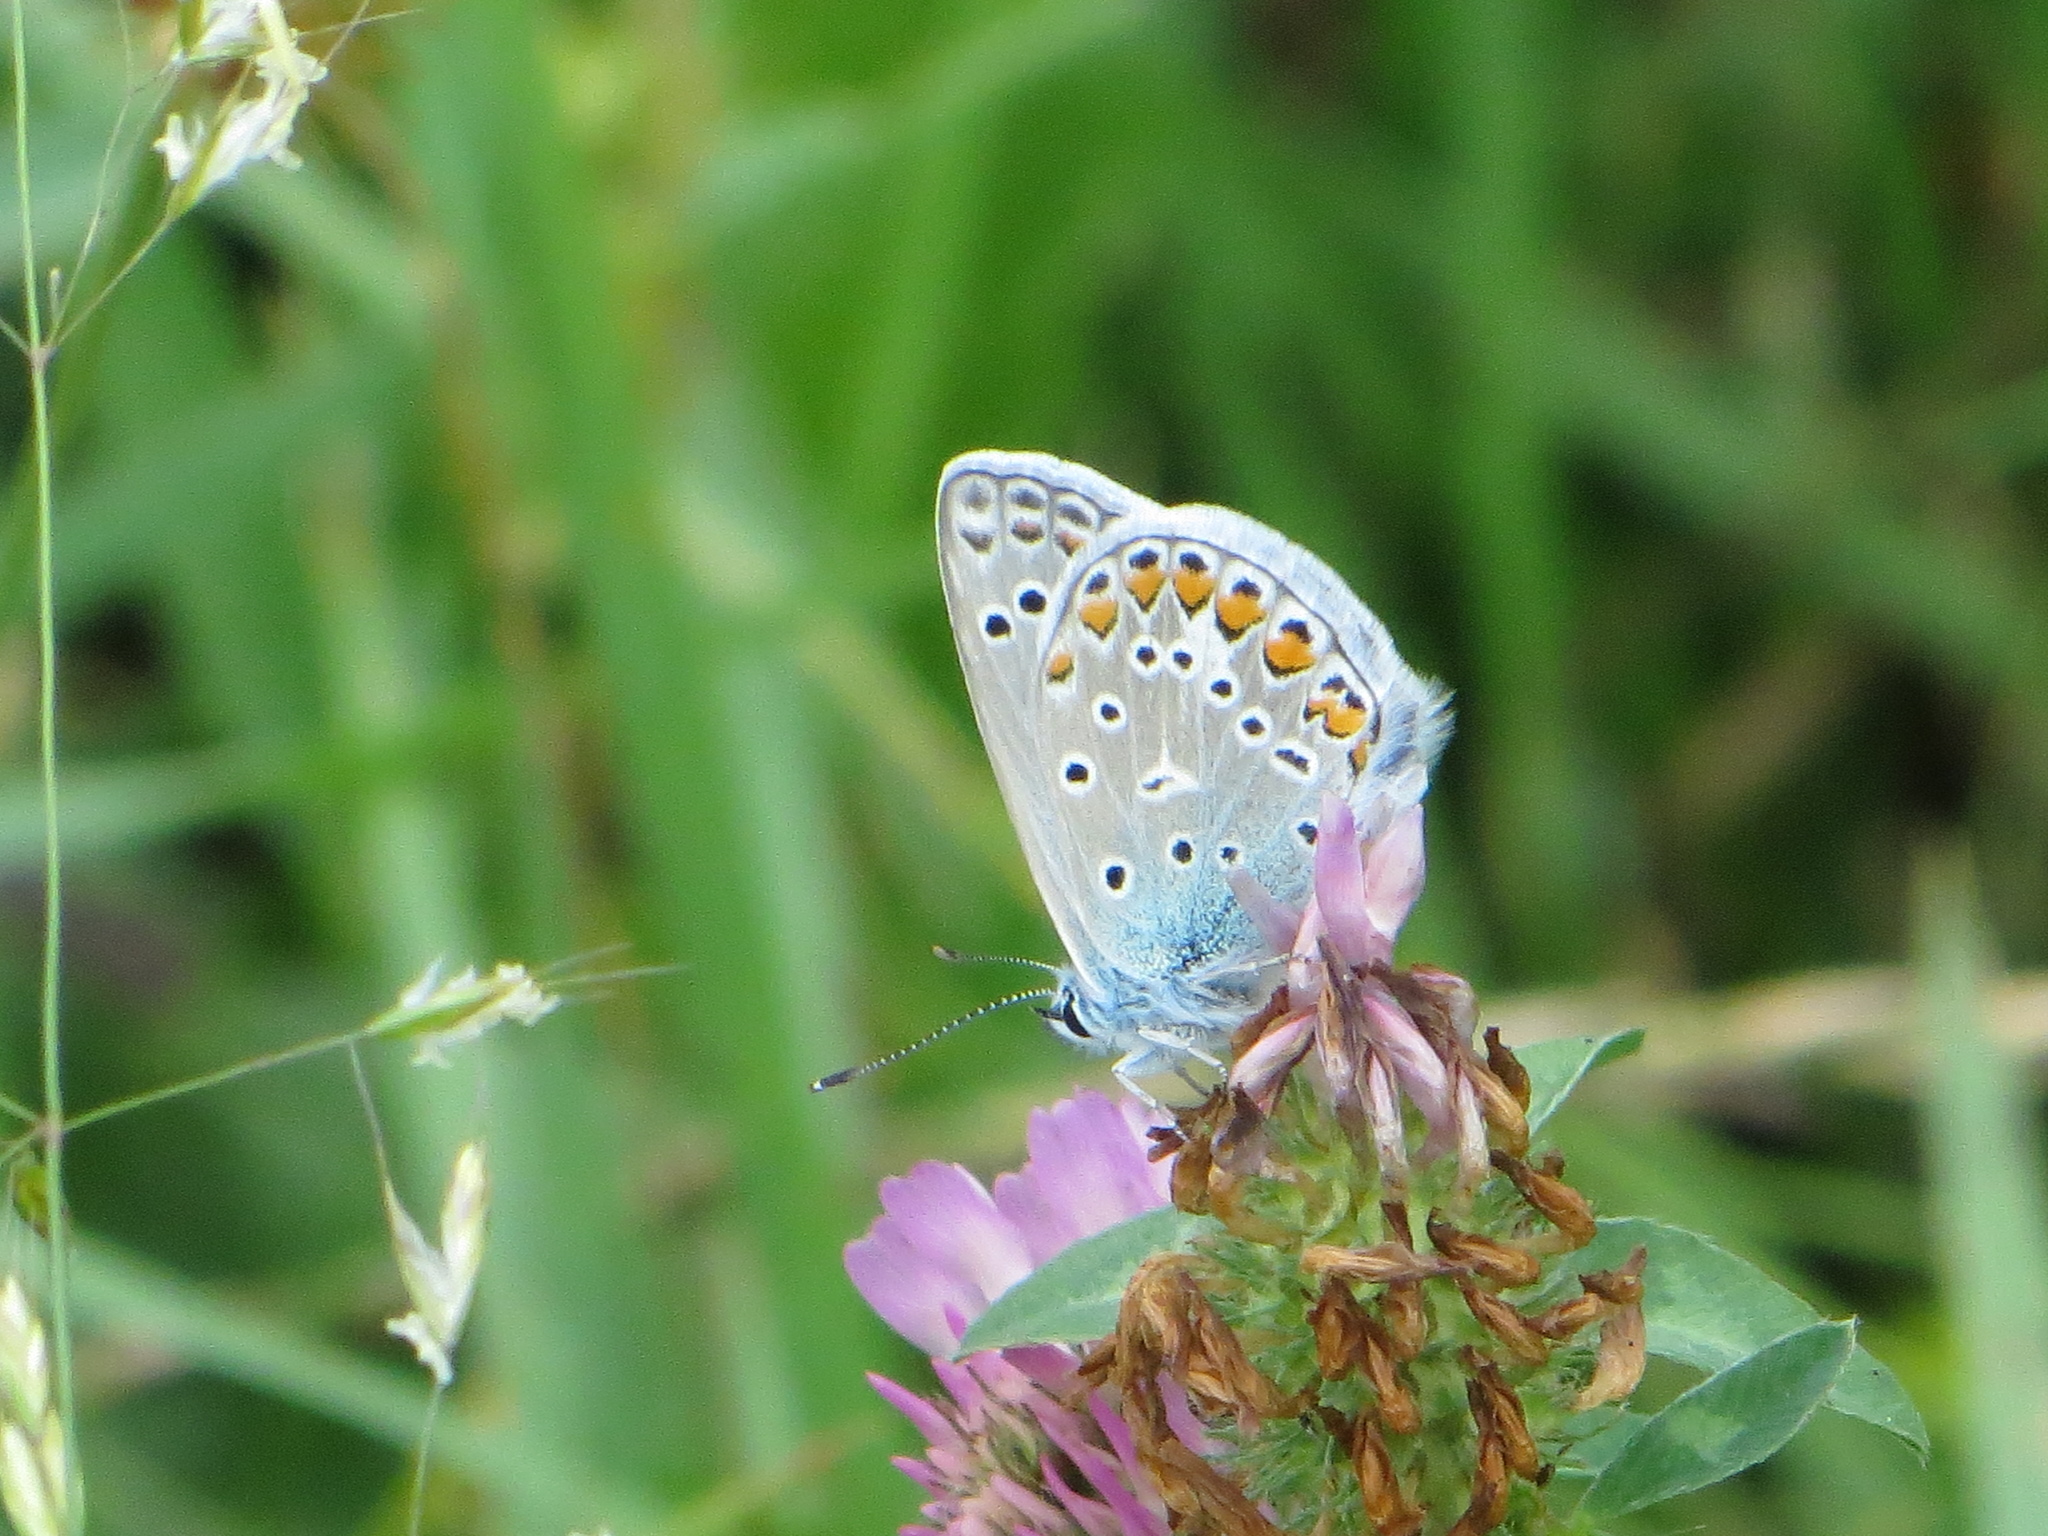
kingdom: Animalia
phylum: Arthropoda
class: Insecta
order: Lepidoptera
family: Lycaenidae
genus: Polyommatus
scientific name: Polyommatus icarus
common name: Common blue
